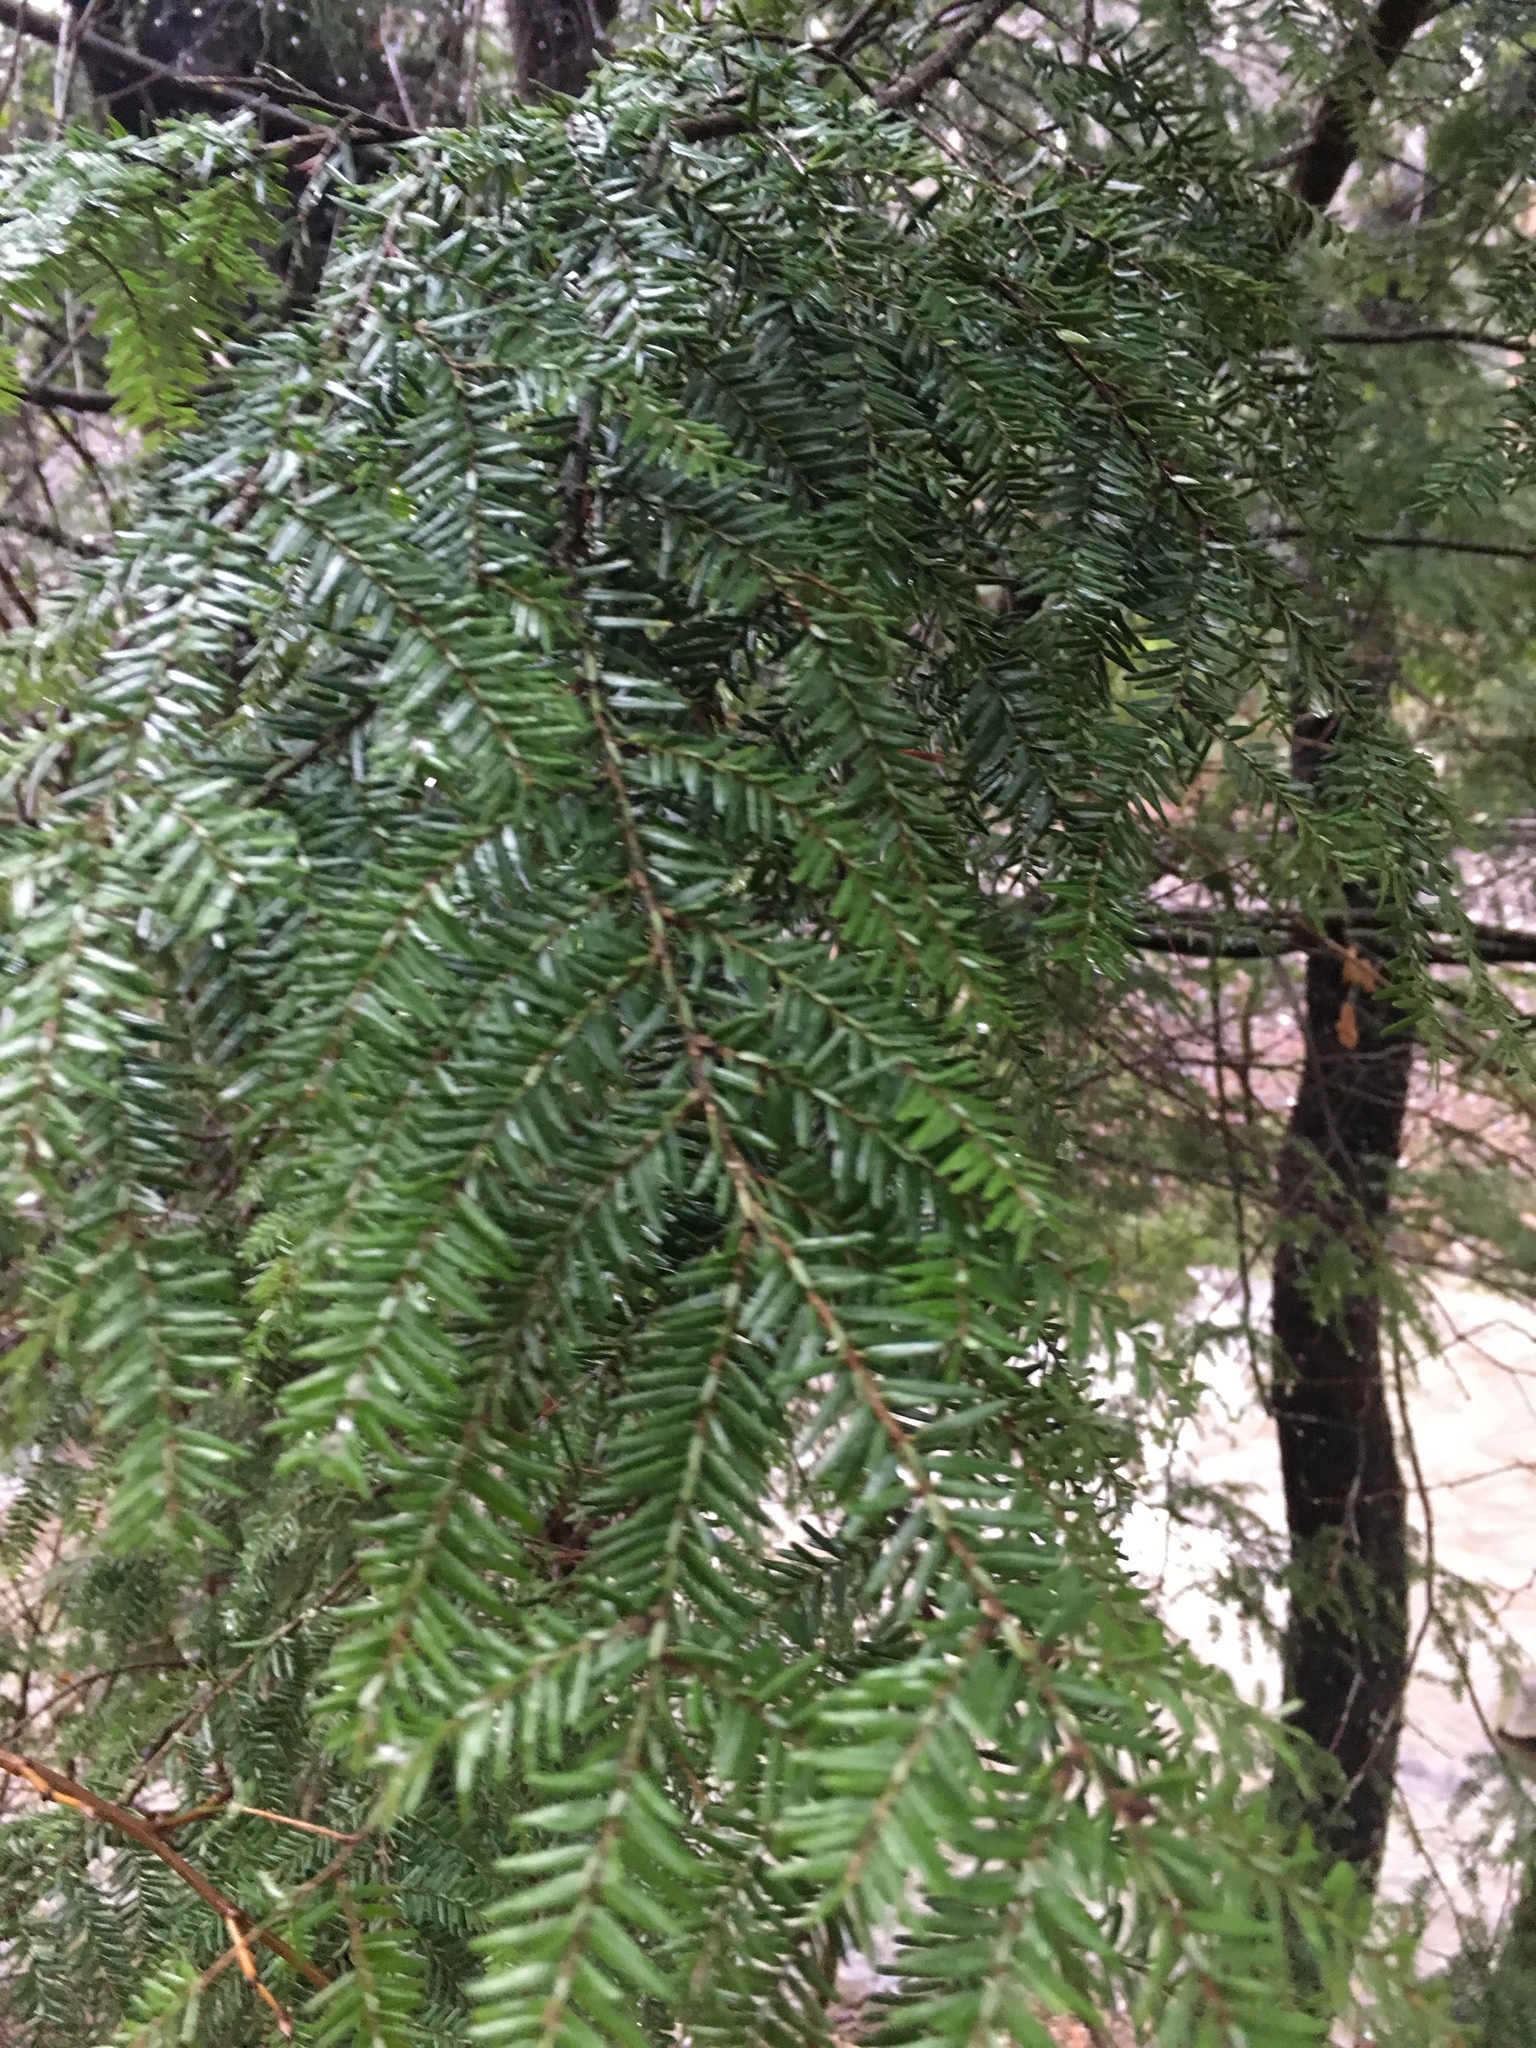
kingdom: Plantae
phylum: Tracheophyta
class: Pinopsida
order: Pinales
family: Pinaceae
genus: Tsuga
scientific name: Tsuga canadensis
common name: Eastern hemlock
